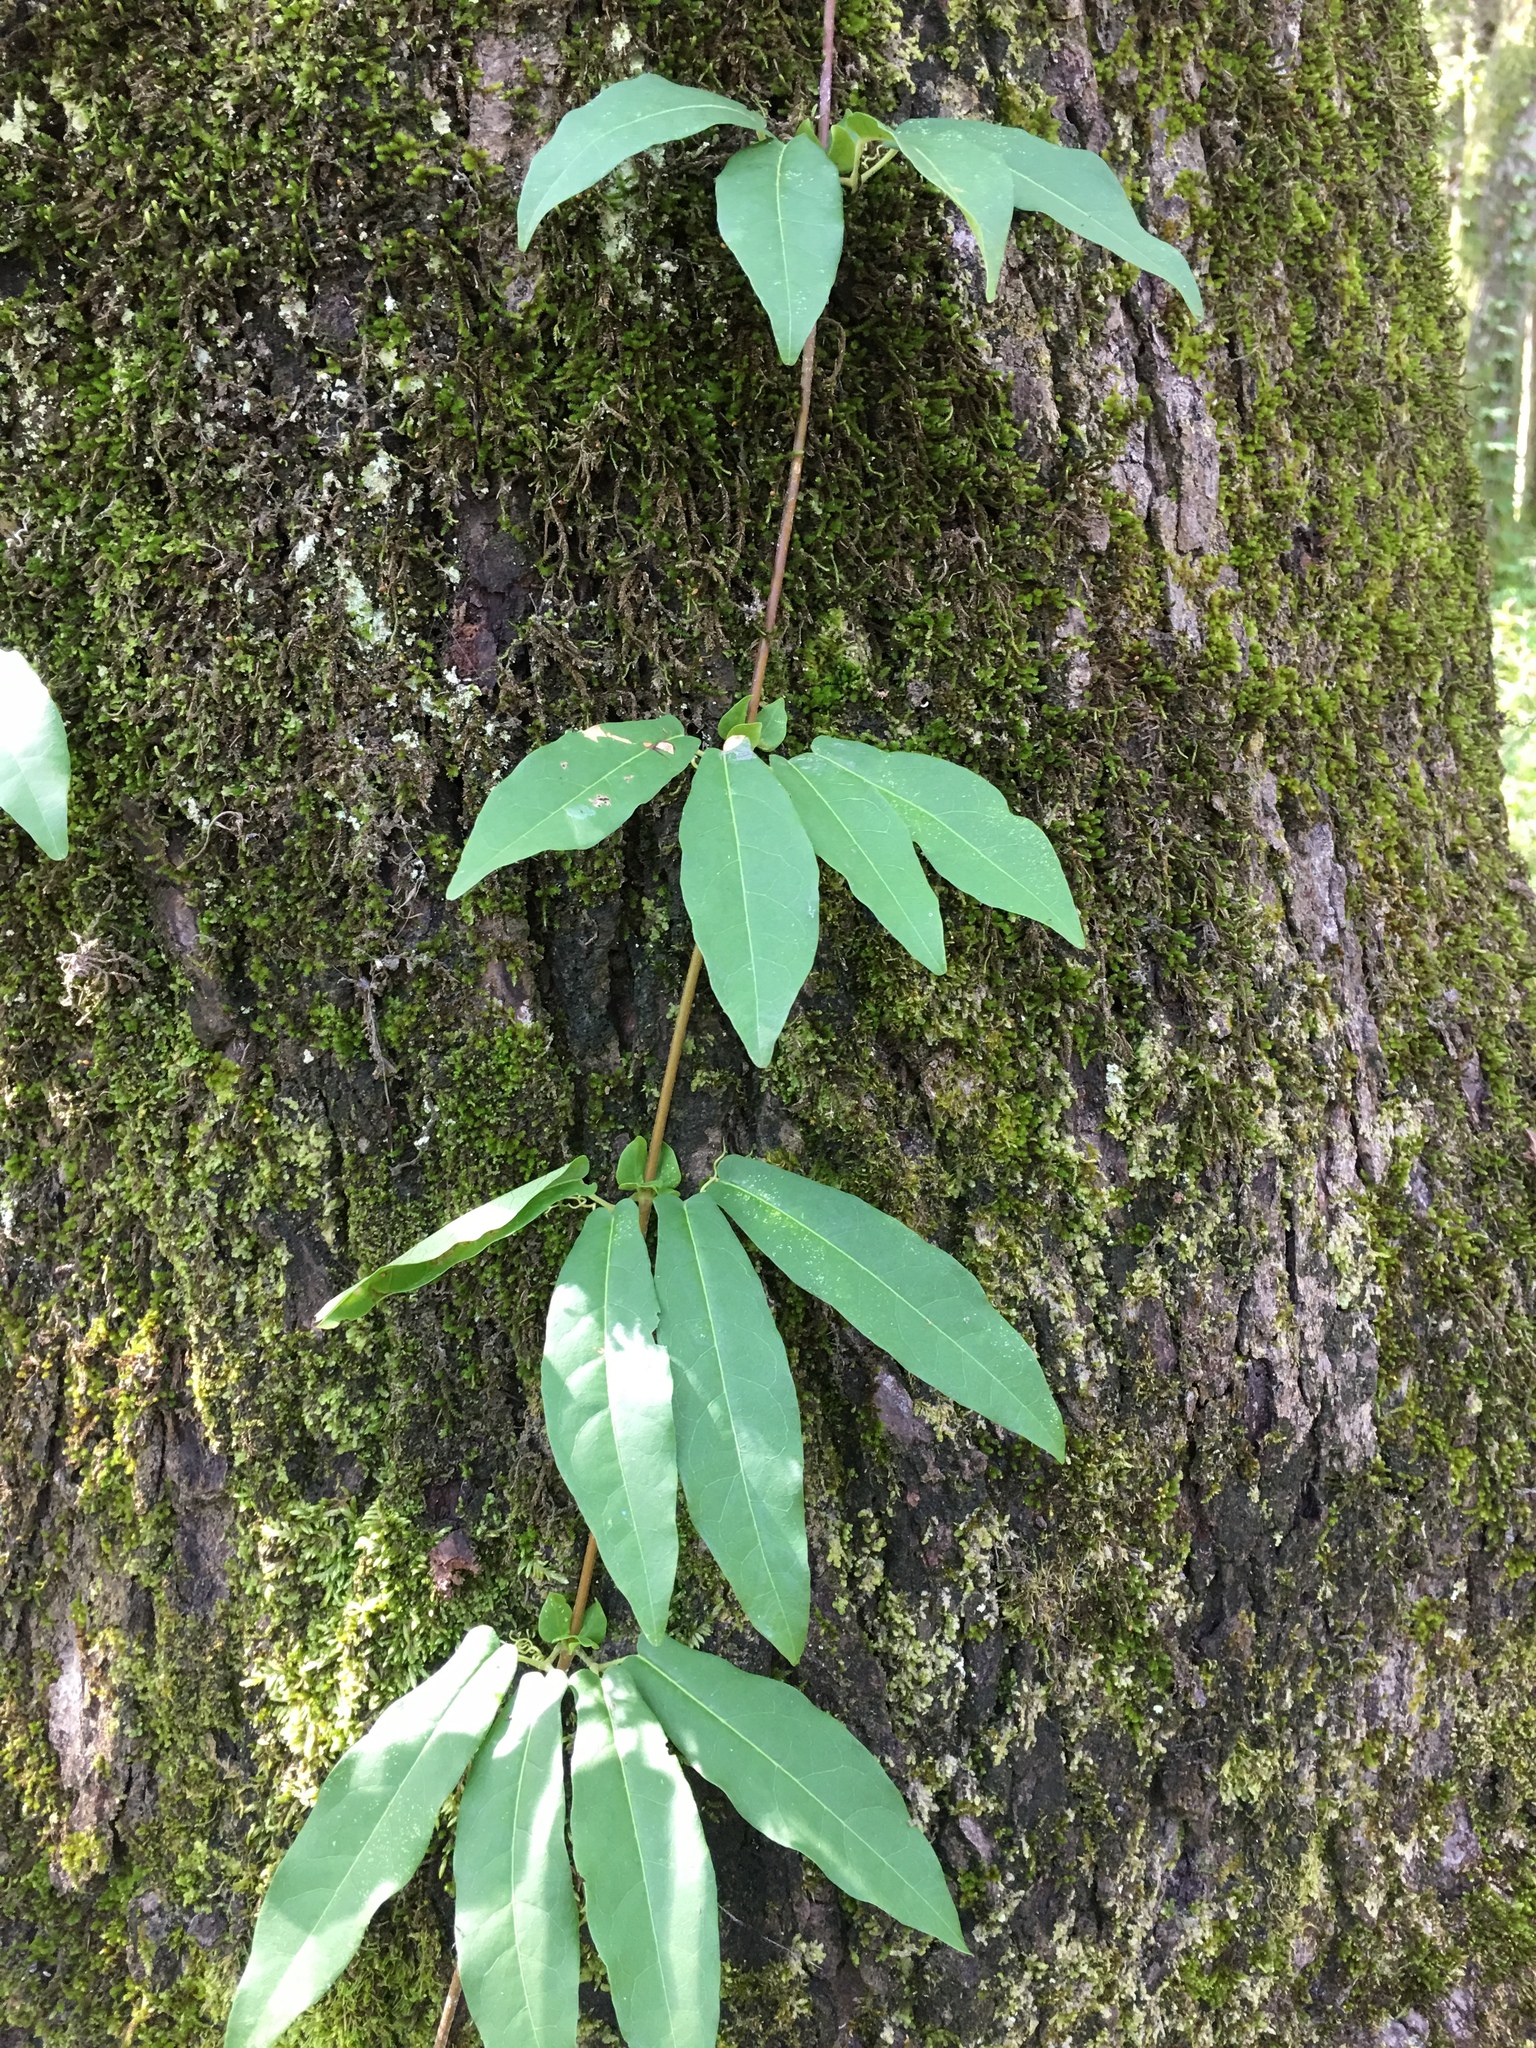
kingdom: Plantae
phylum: Tracheophyta
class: Magnoliopsida
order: Lamiales
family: Bignoniaceae
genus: Bignonia
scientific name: Bignonia capreolata
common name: Crossvine
